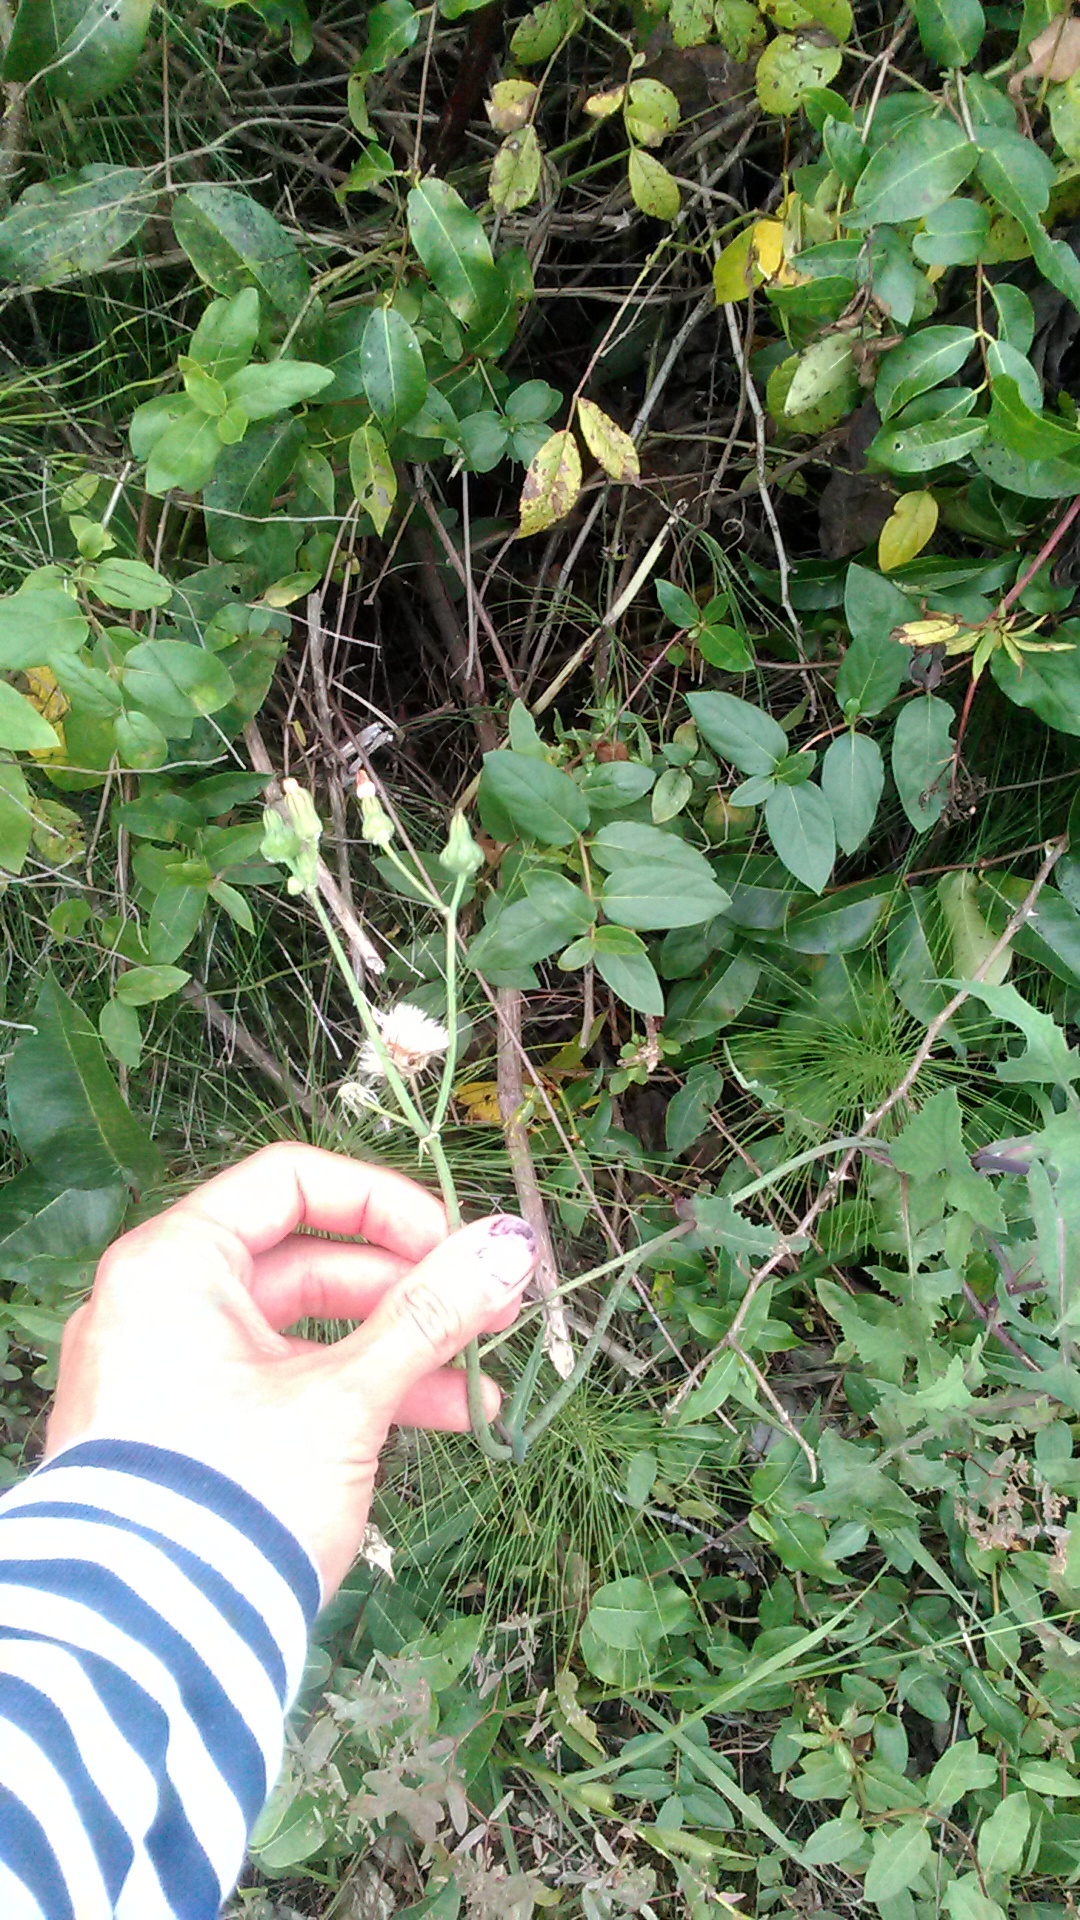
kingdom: Plantae
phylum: Tracheophyta
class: Magnoliopsida
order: Asterales
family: Asteraceae
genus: Sonchus
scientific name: Sonchus oleraceus
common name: Common sowthistle
